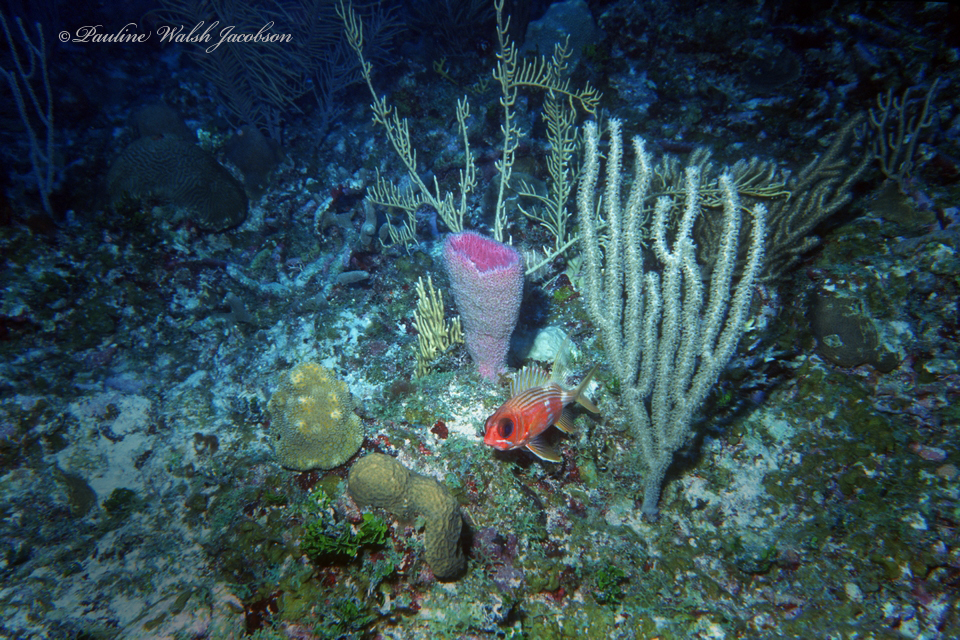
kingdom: Animalia
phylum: Chordata
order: Beryciformes
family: Holocentridae
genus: Holocentrus
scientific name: Holocentrus rufus
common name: Longspine squirrelfish
